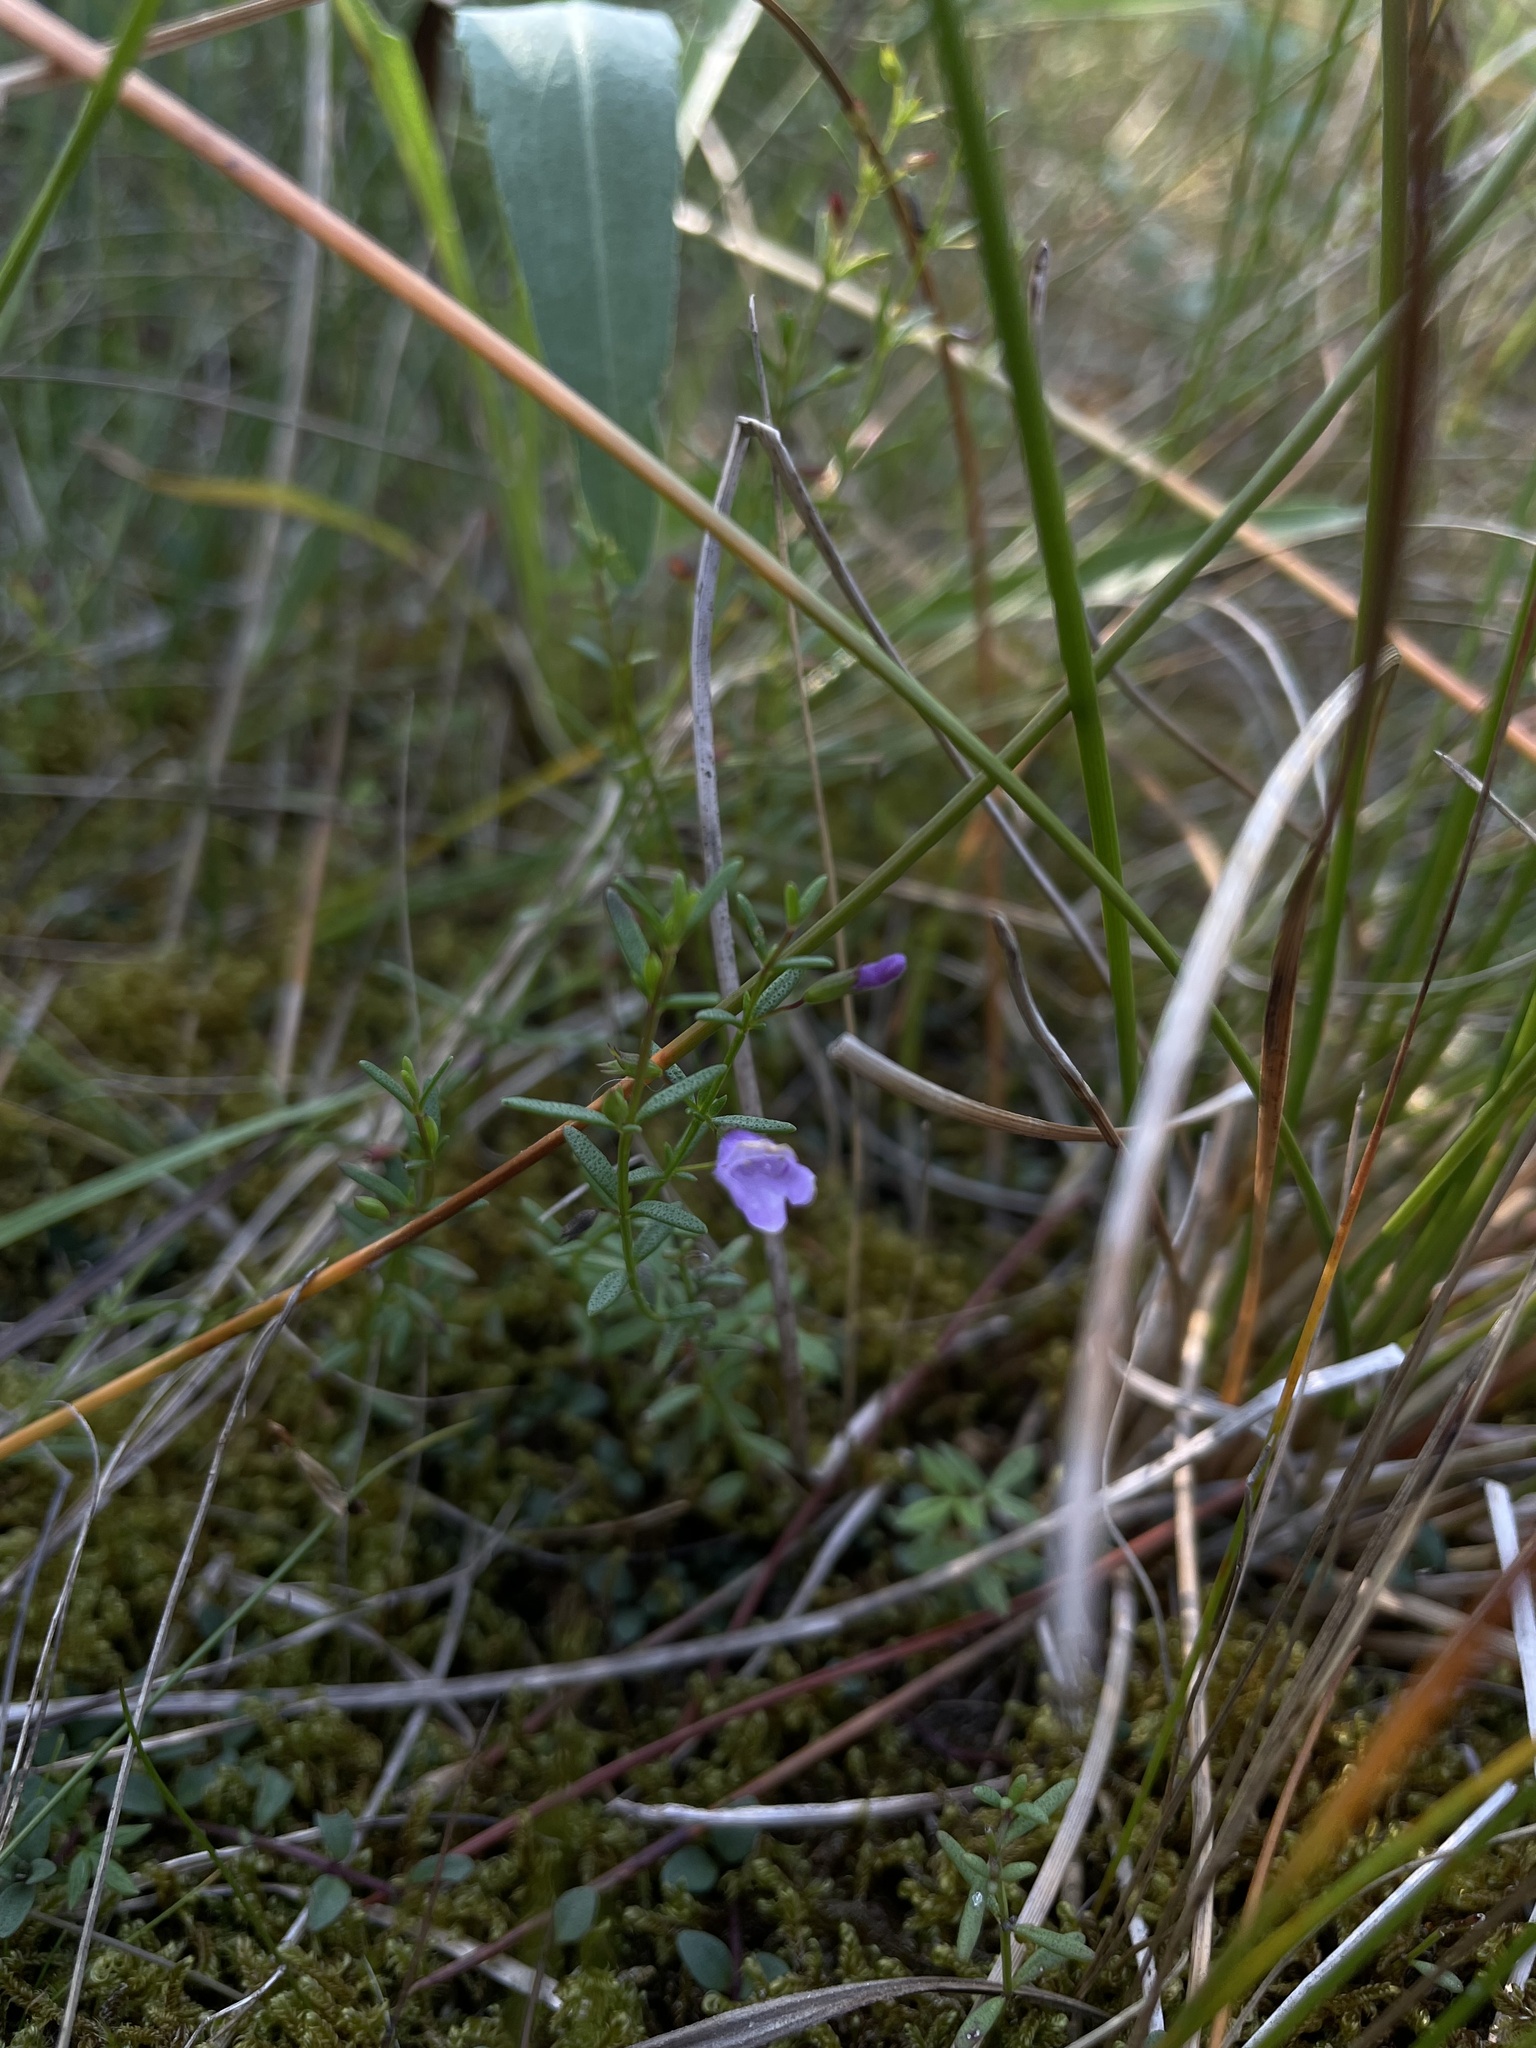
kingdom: Plantae
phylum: Tracheophyta
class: Magnoliopsida
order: Lamiales
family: Lamiaceae
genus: Clinopodium
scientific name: Clinopodium arkansanum
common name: Limestone calamint
